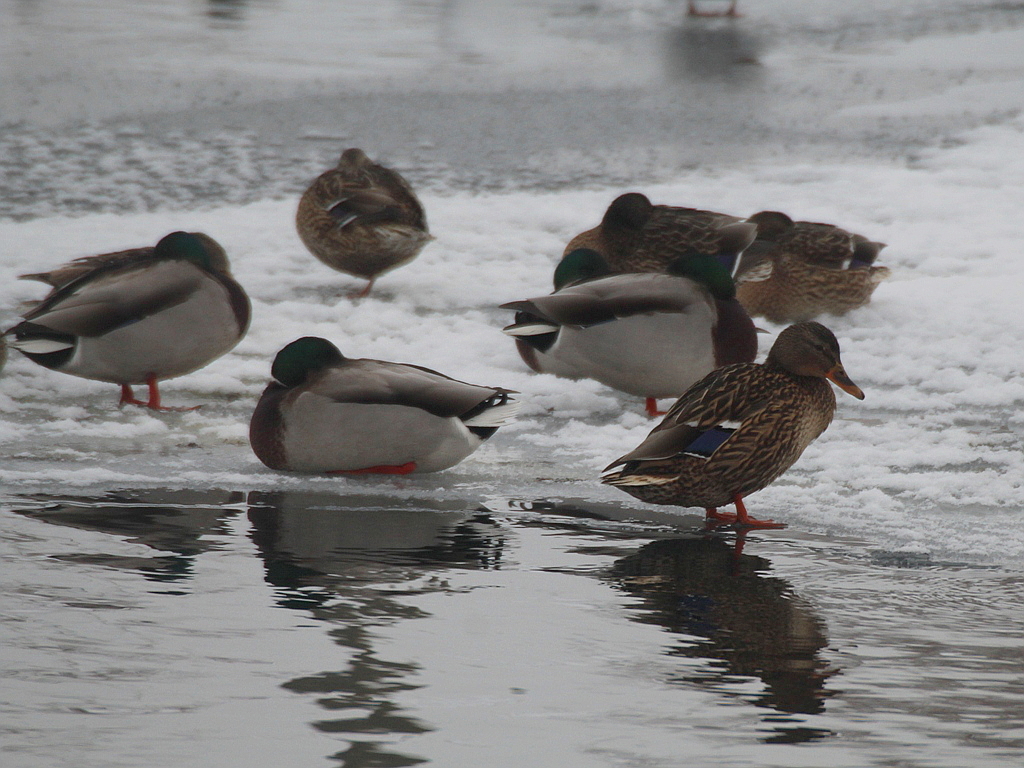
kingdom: Animalia
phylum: Chordata
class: Aves
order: Anseriformes
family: Anatidae
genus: Anas
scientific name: Anas platyrhynchos
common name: Mallard
